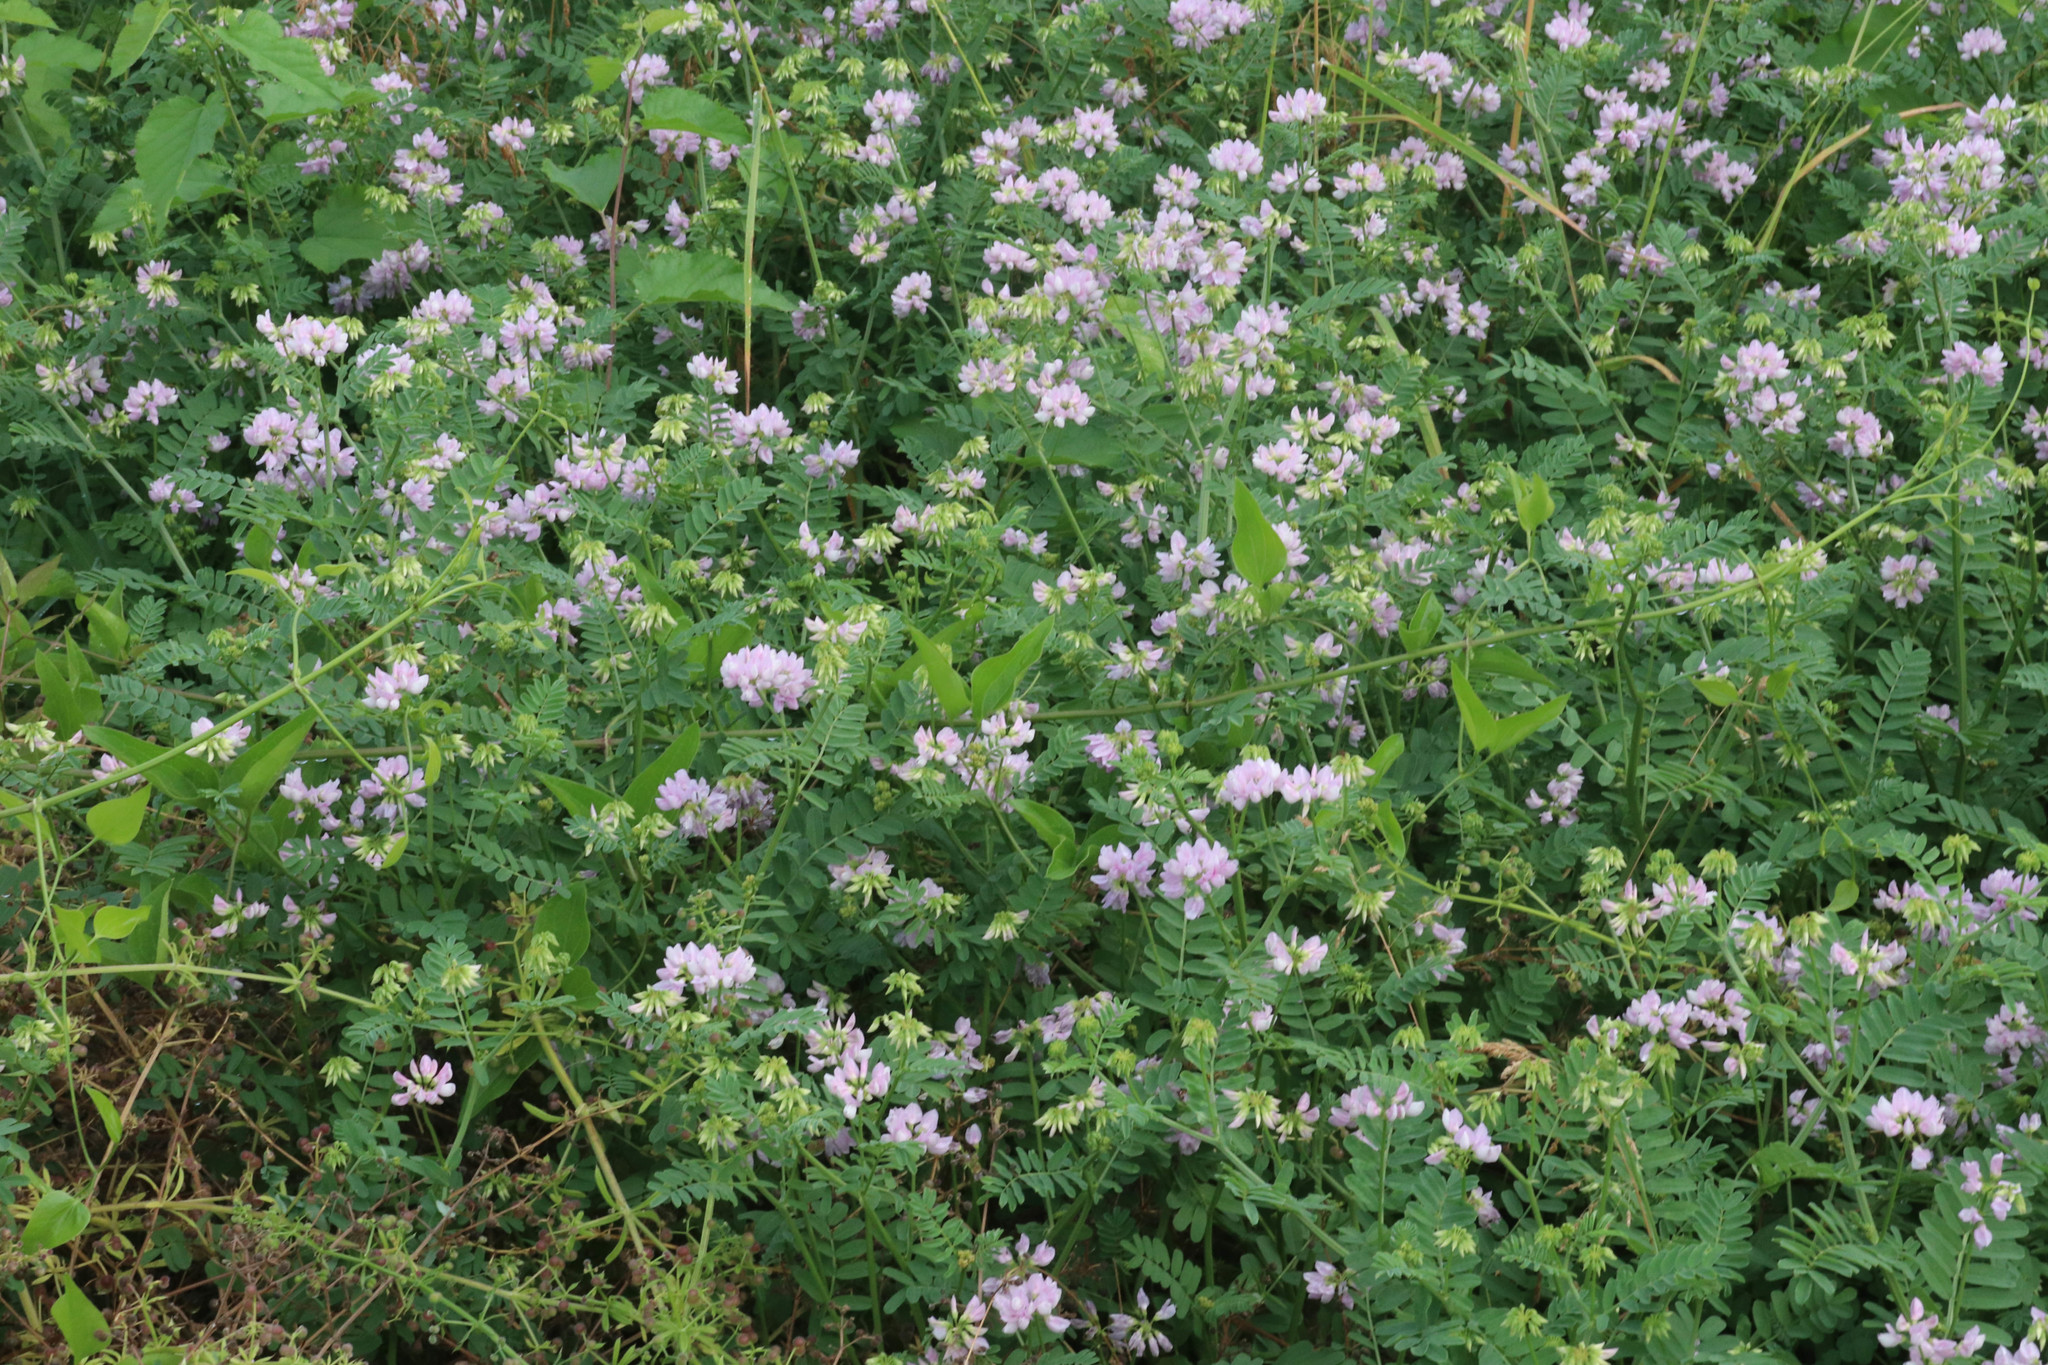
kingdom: Plantae
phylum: Tracheophyta
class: Magnoliopsida
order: Fabales
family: Fabaceae
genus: Coronilla
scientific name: Coronilla varia
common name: Crownvetch
